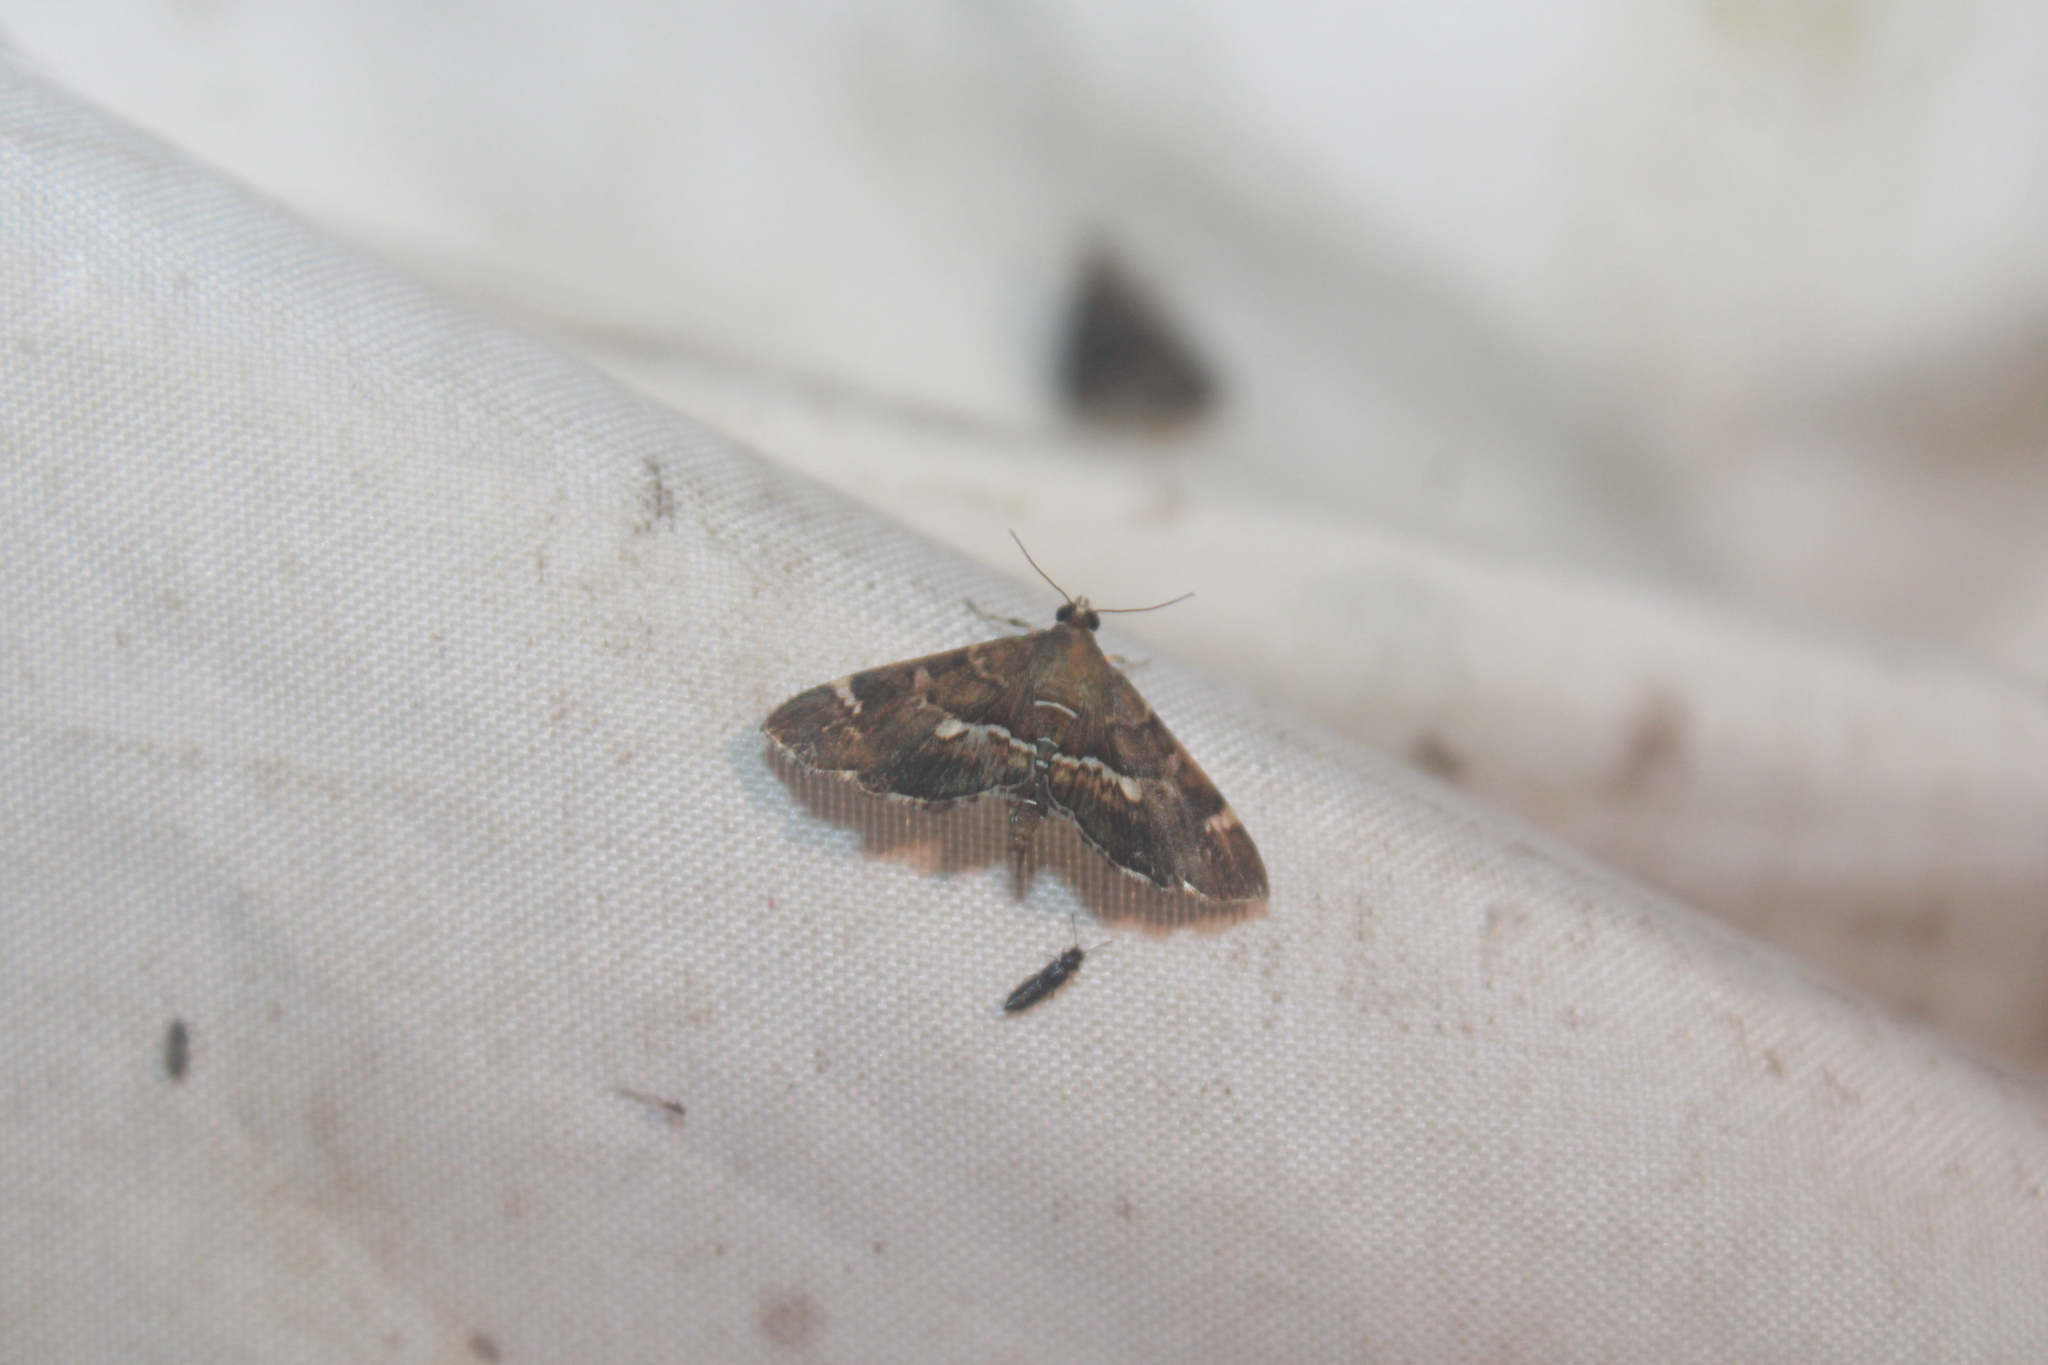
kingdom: Animalia
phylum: Arthropoda
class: Insecta
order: Lepidoptera
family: Crambidae
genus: Hymenia
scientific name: Hymenia perspectalis
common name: Spotted beet webworm
